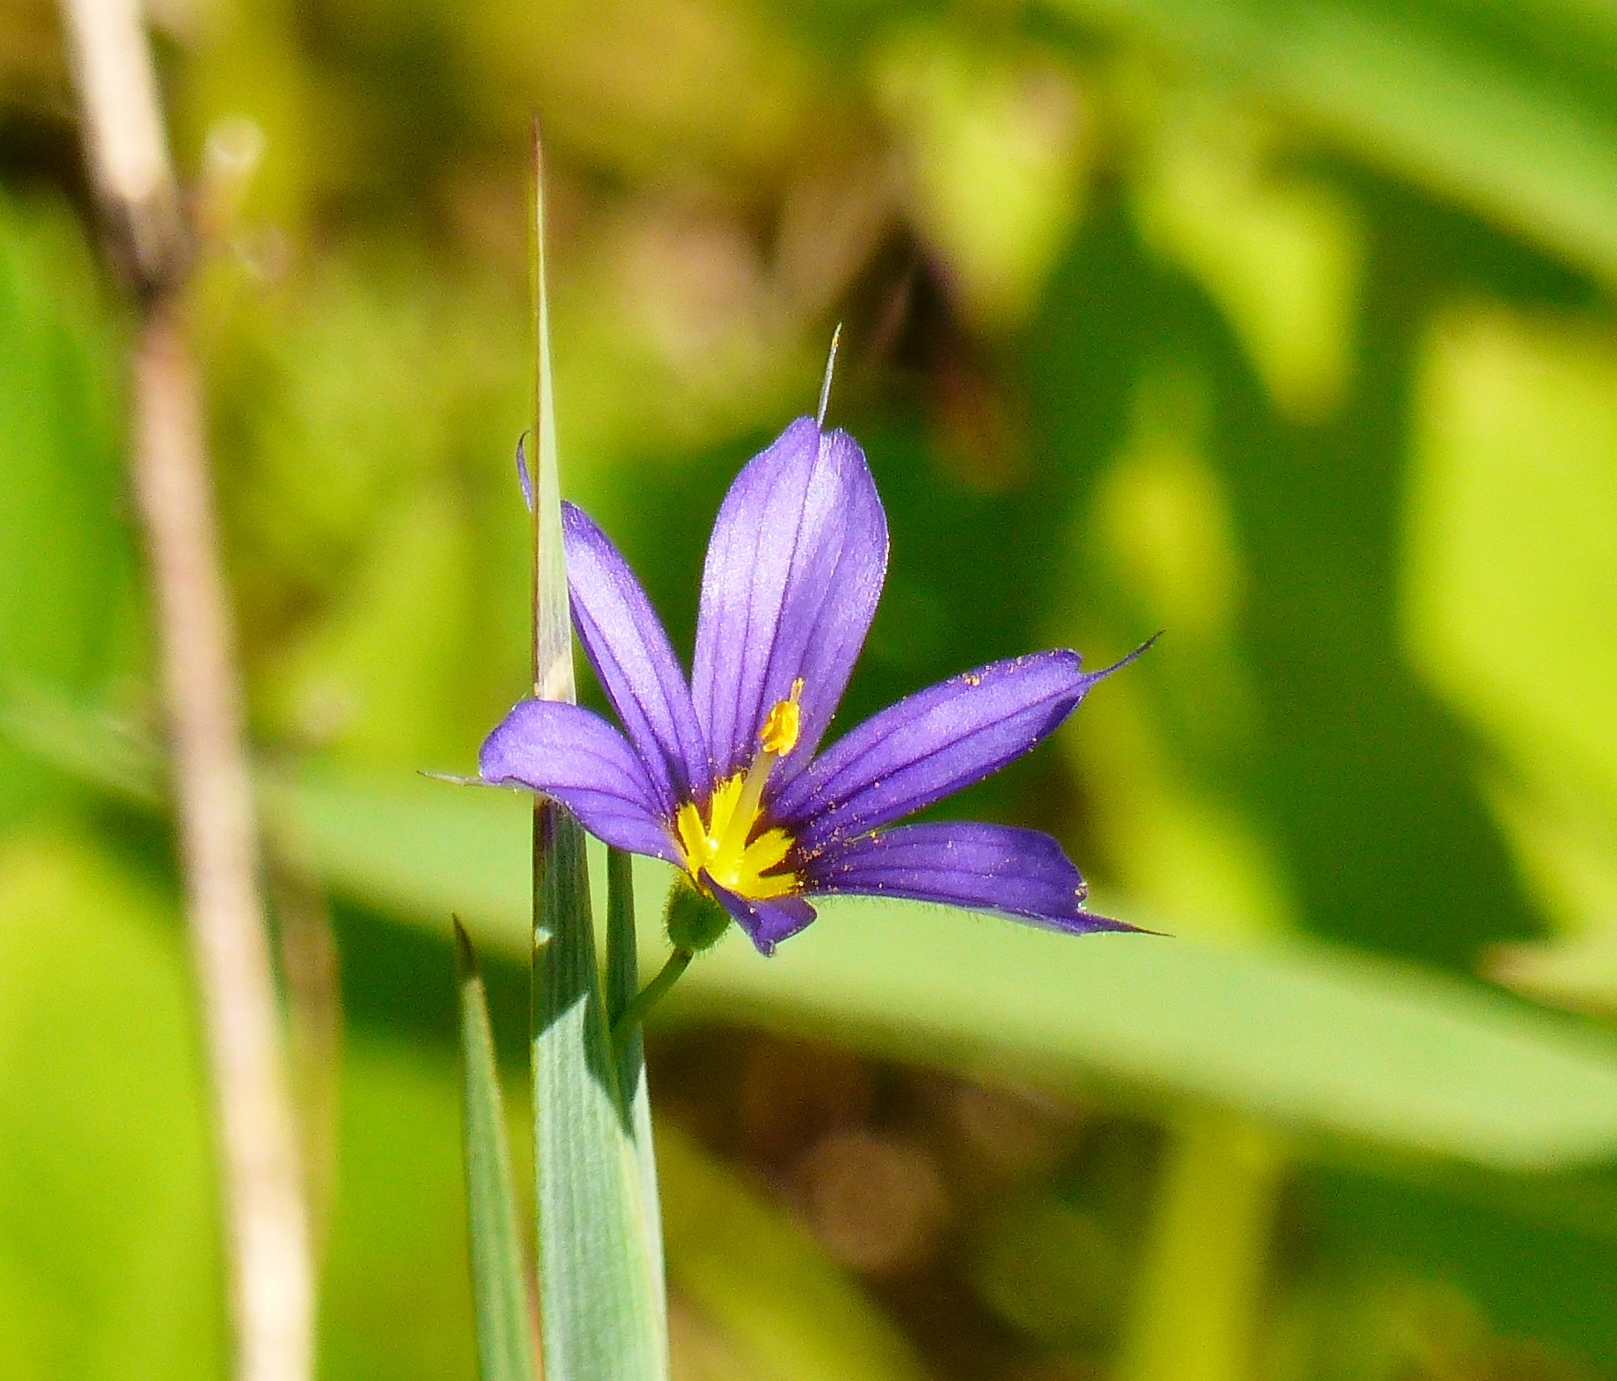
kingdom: Plantae
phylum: Tracheophyta
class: Liliopsida
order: Asparagales
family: Iridaceae
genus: Sisyrinchium
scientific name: Sisyrinchium montanum
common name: American blue-eyed-grass
